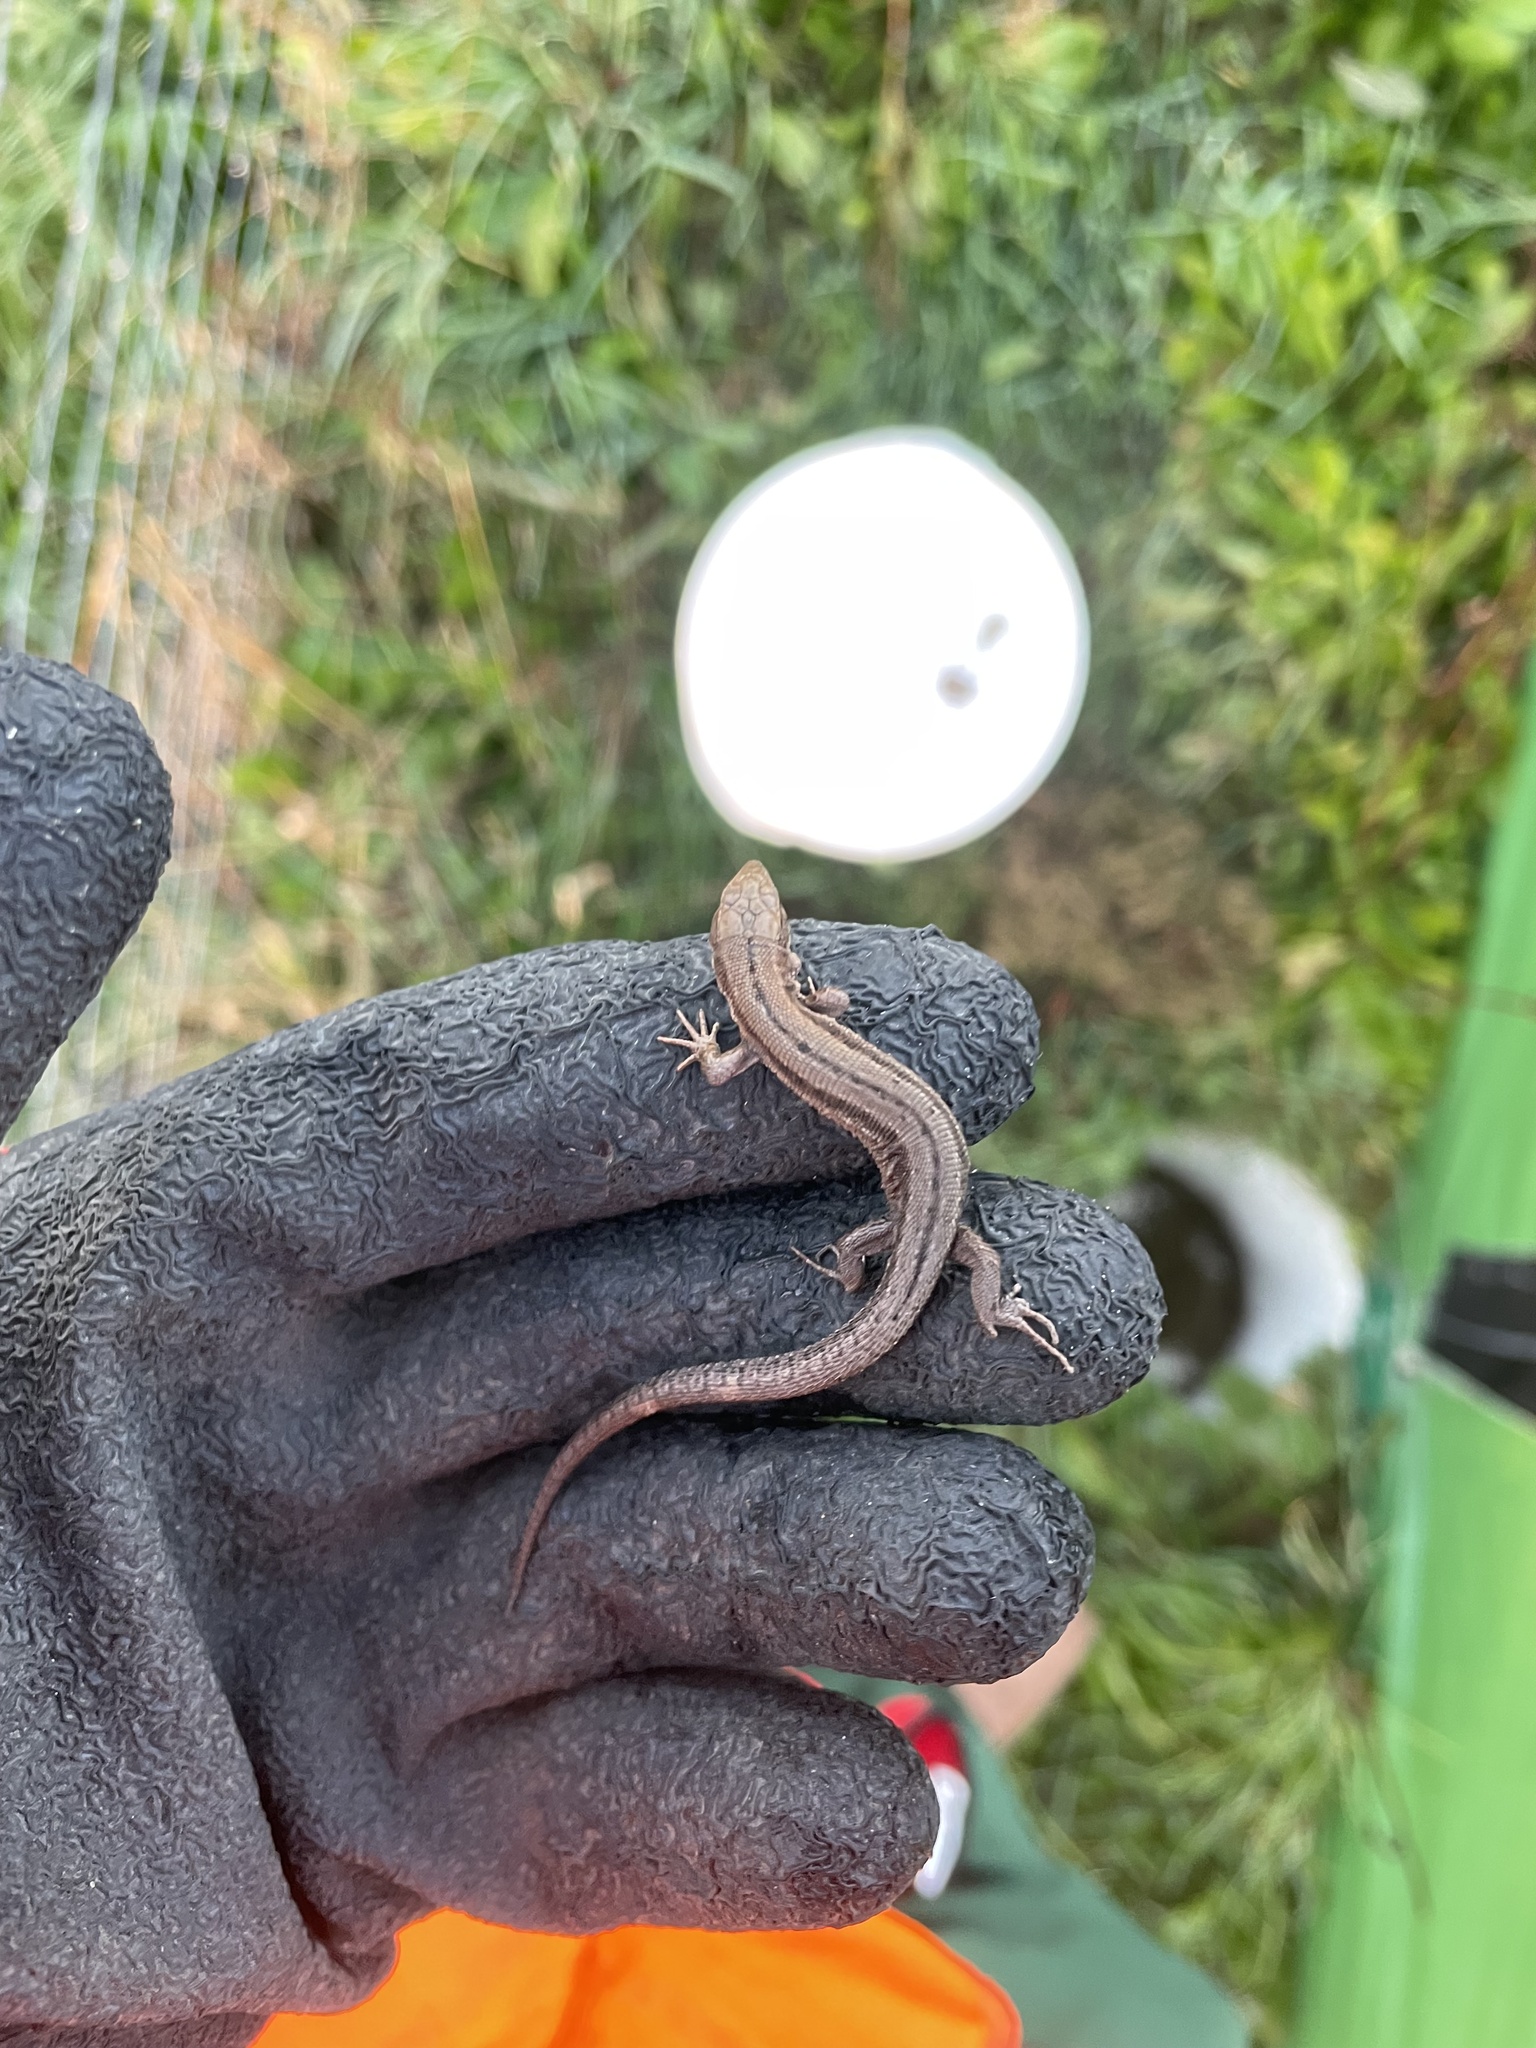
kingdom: Animalia
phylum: Chordata
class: Squamata
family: Lacertidae
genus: Zootoca
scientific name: Zootoca vivipara
